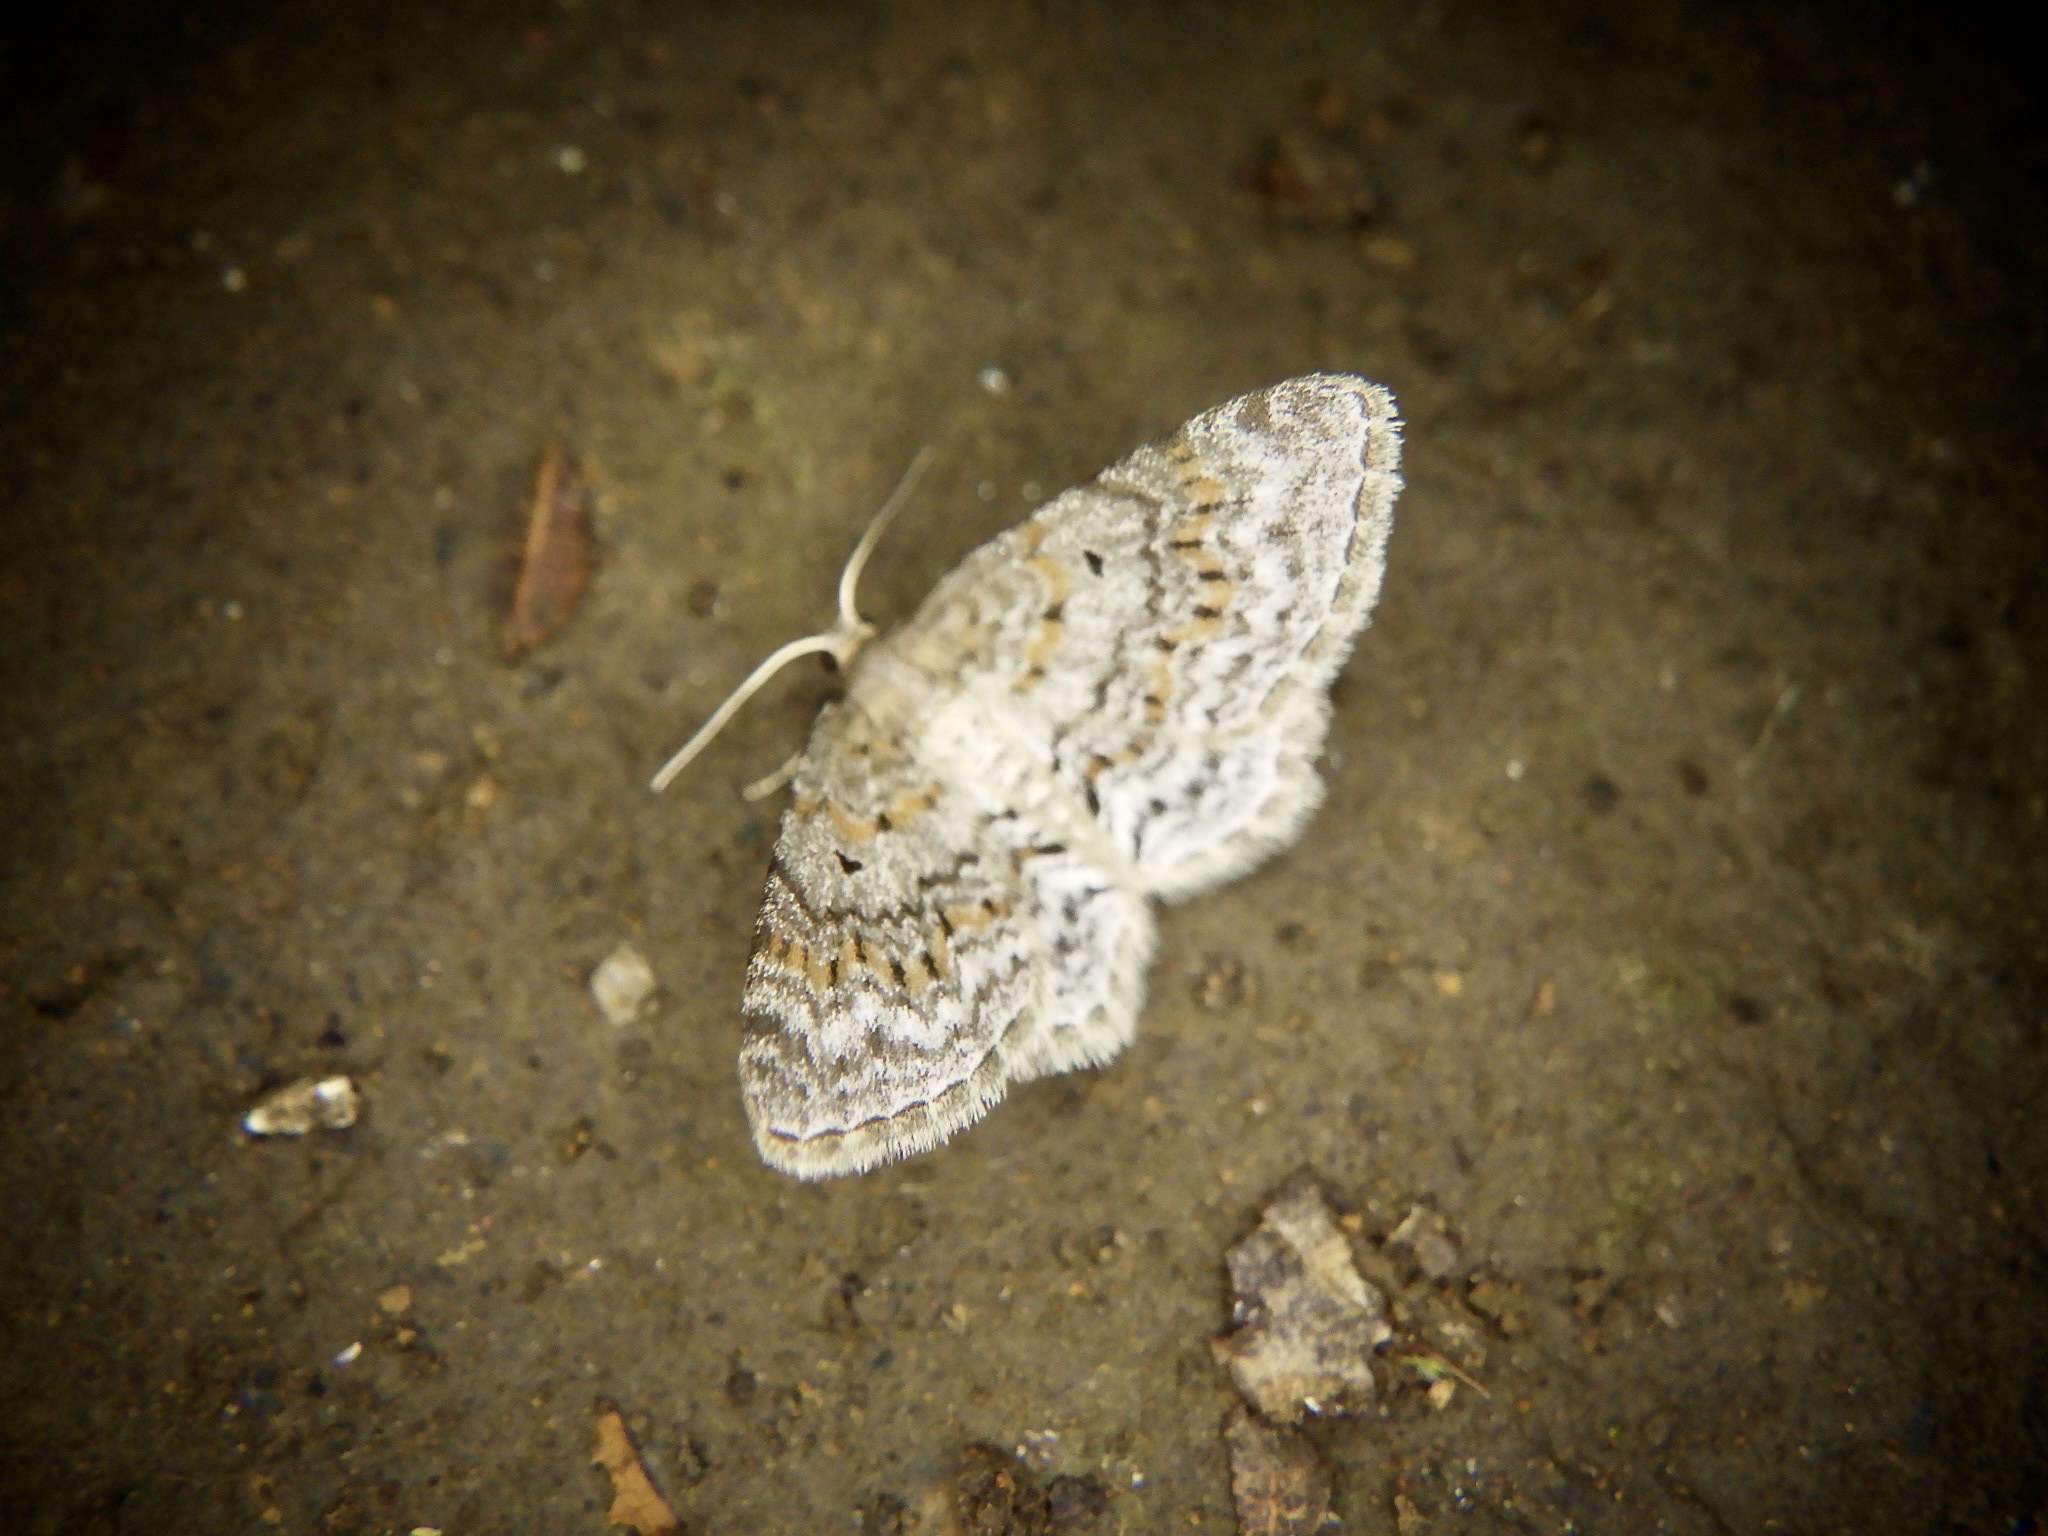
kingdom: Animalia
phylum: Arthropoda
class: Insecta
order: Lepidoptera
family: Geometridae
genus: Hydrelia
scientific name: Hydrelia nisaria
